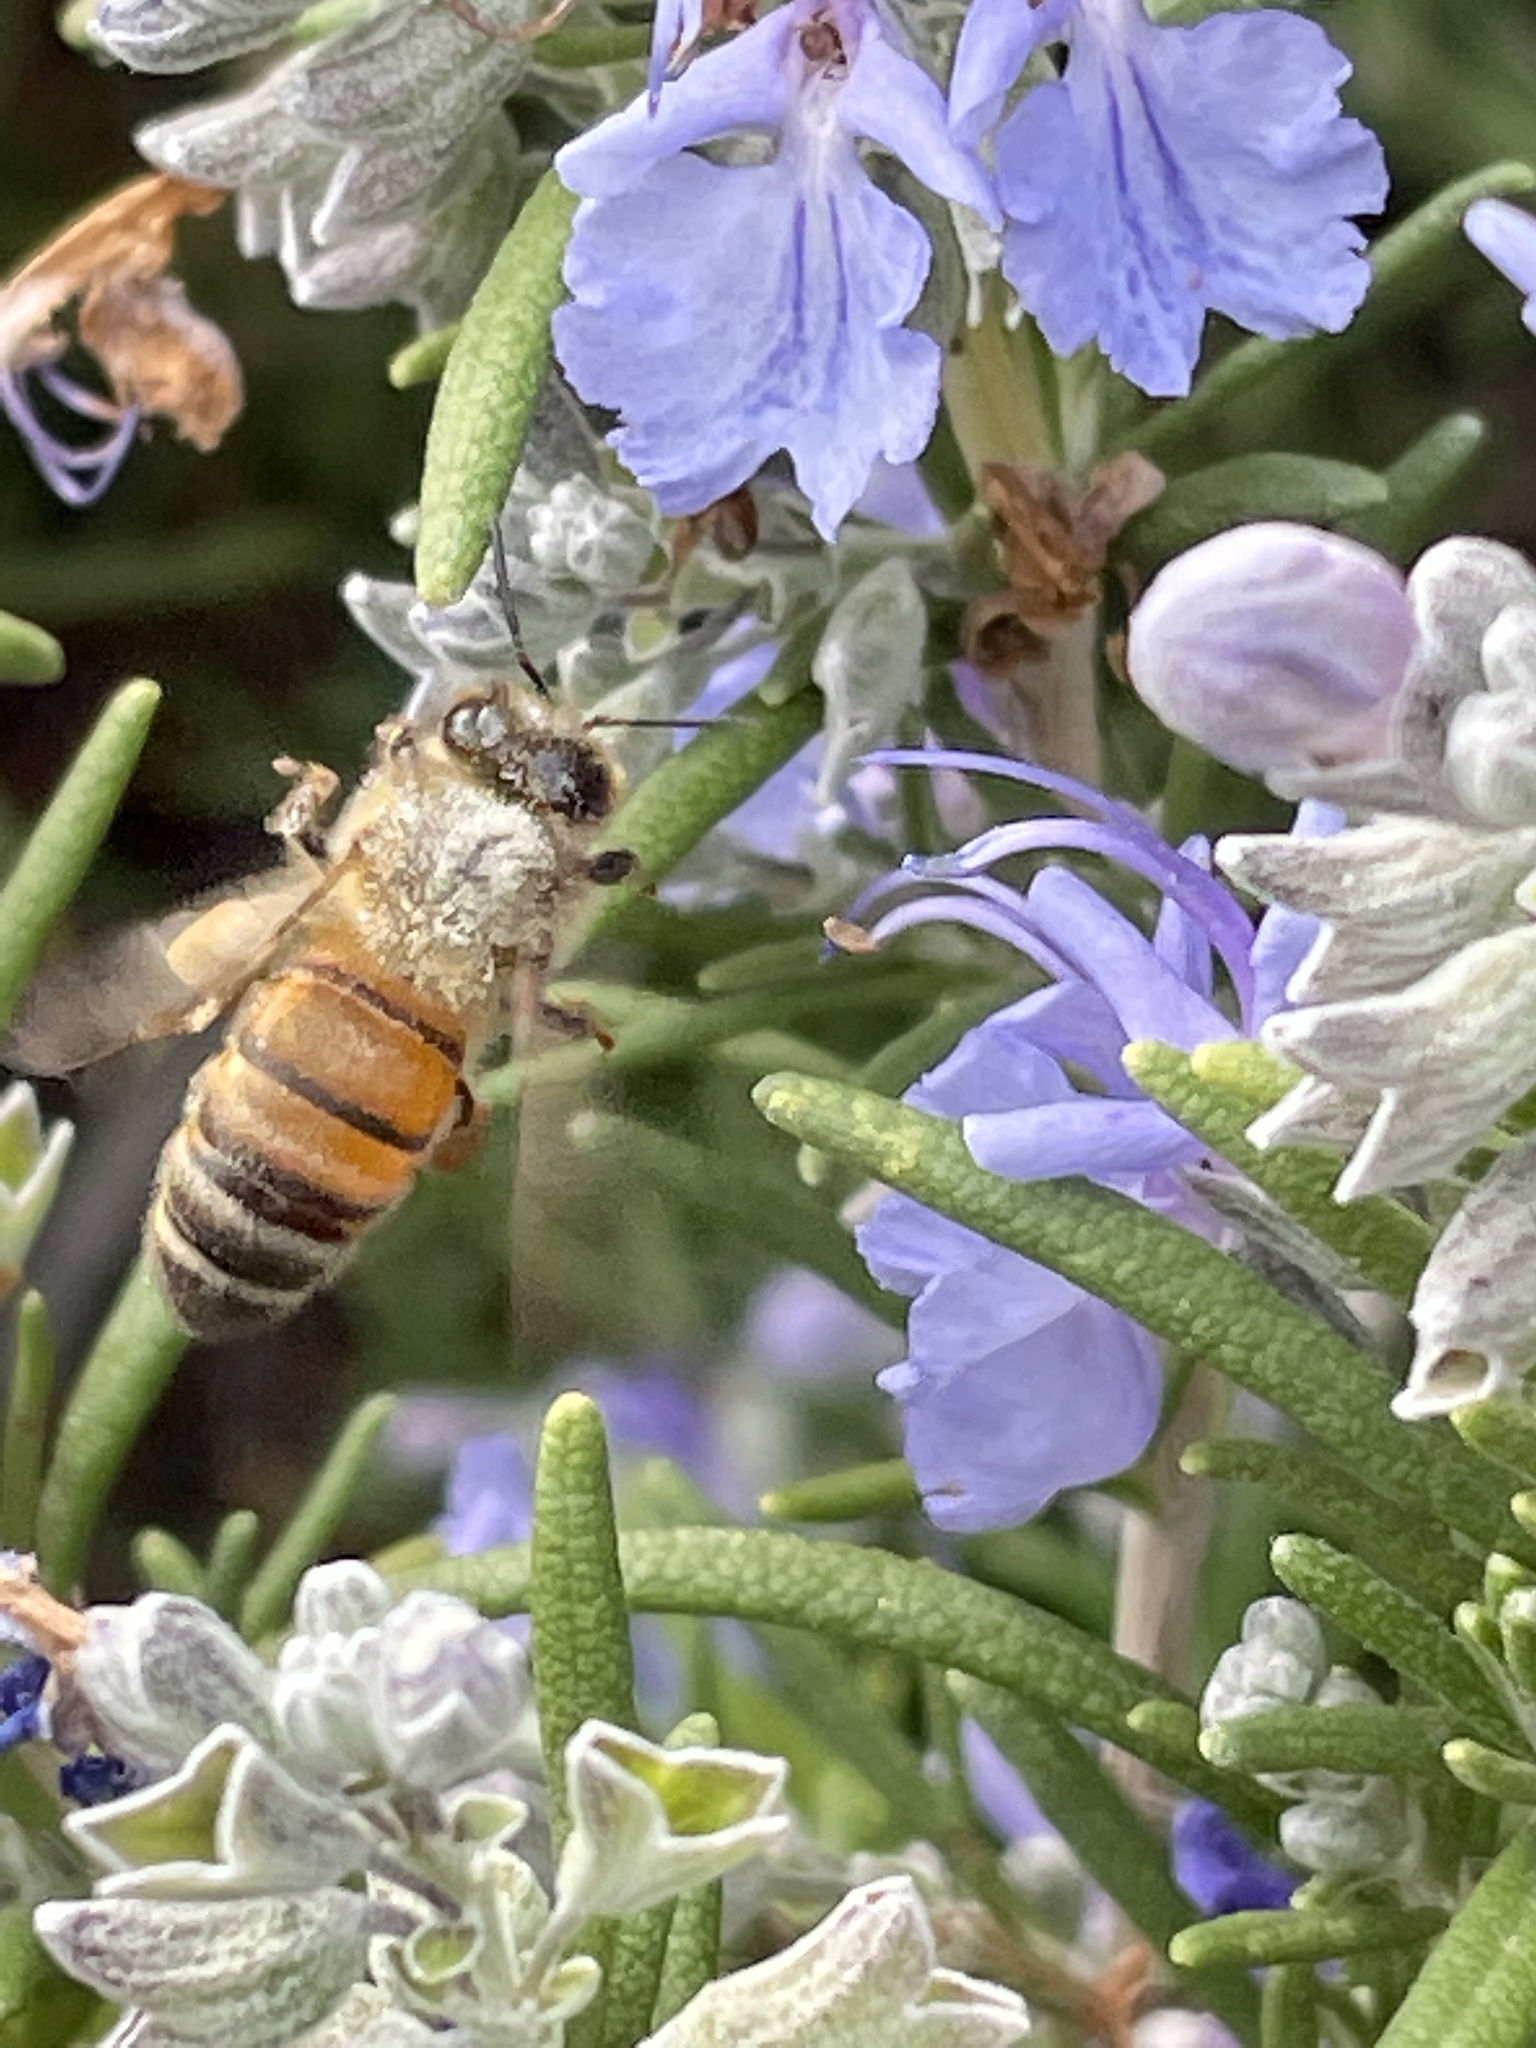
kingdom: Animalia
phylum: Arthropoda
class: Insecta
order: Hymenoptera
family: Apidae
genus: Apis
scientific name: Apis mellifera
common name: Honey bee
